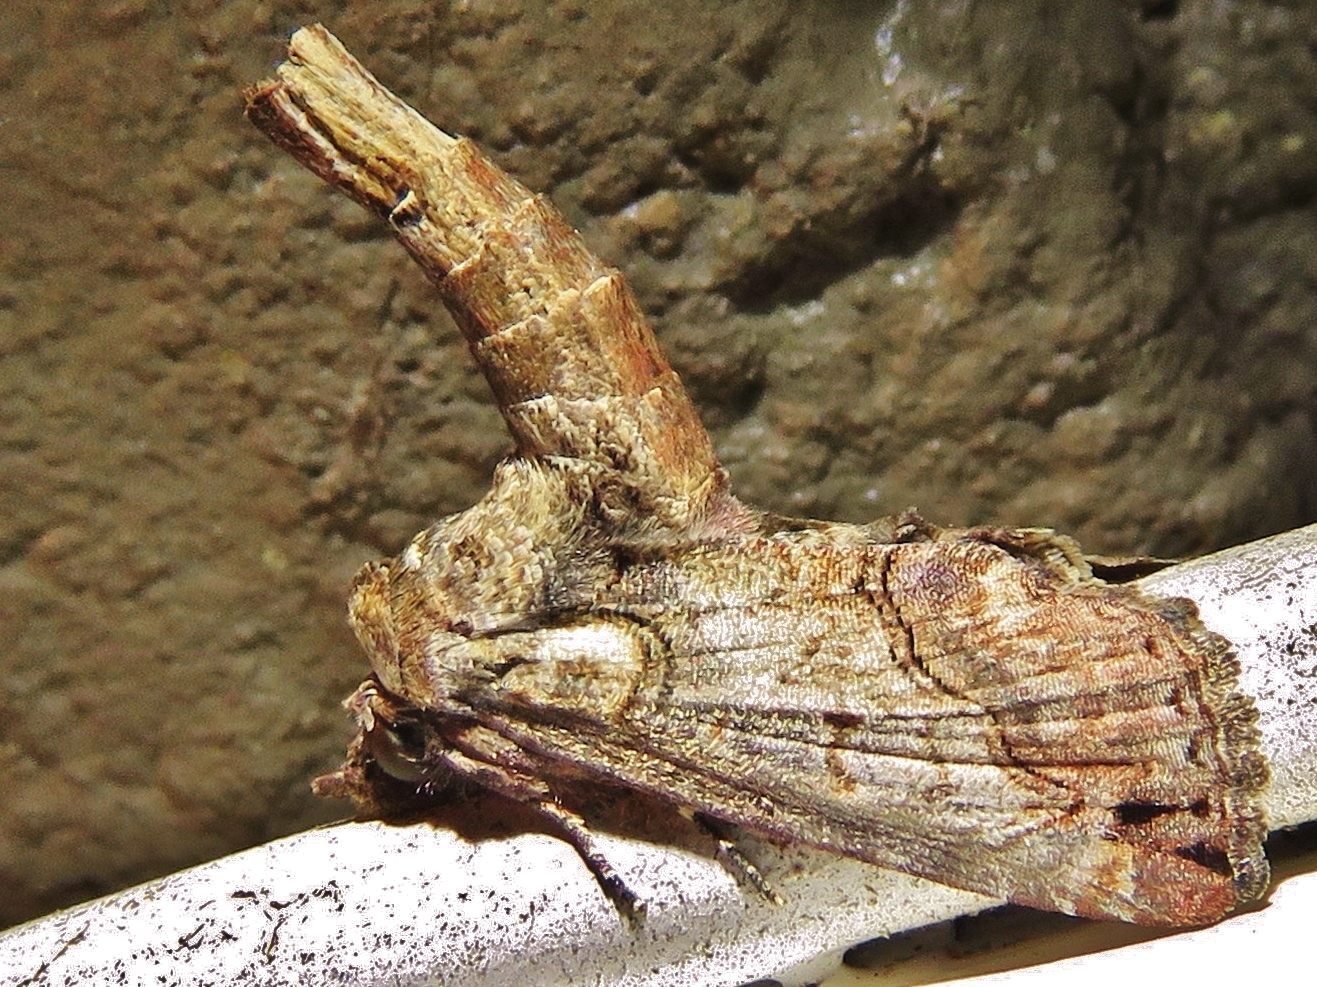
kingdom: Animalia
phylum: Arthropoda
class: Insecta
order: Lepidoptera
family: Euteliidae
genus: Paectes
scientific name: Paectes abrostoloides
